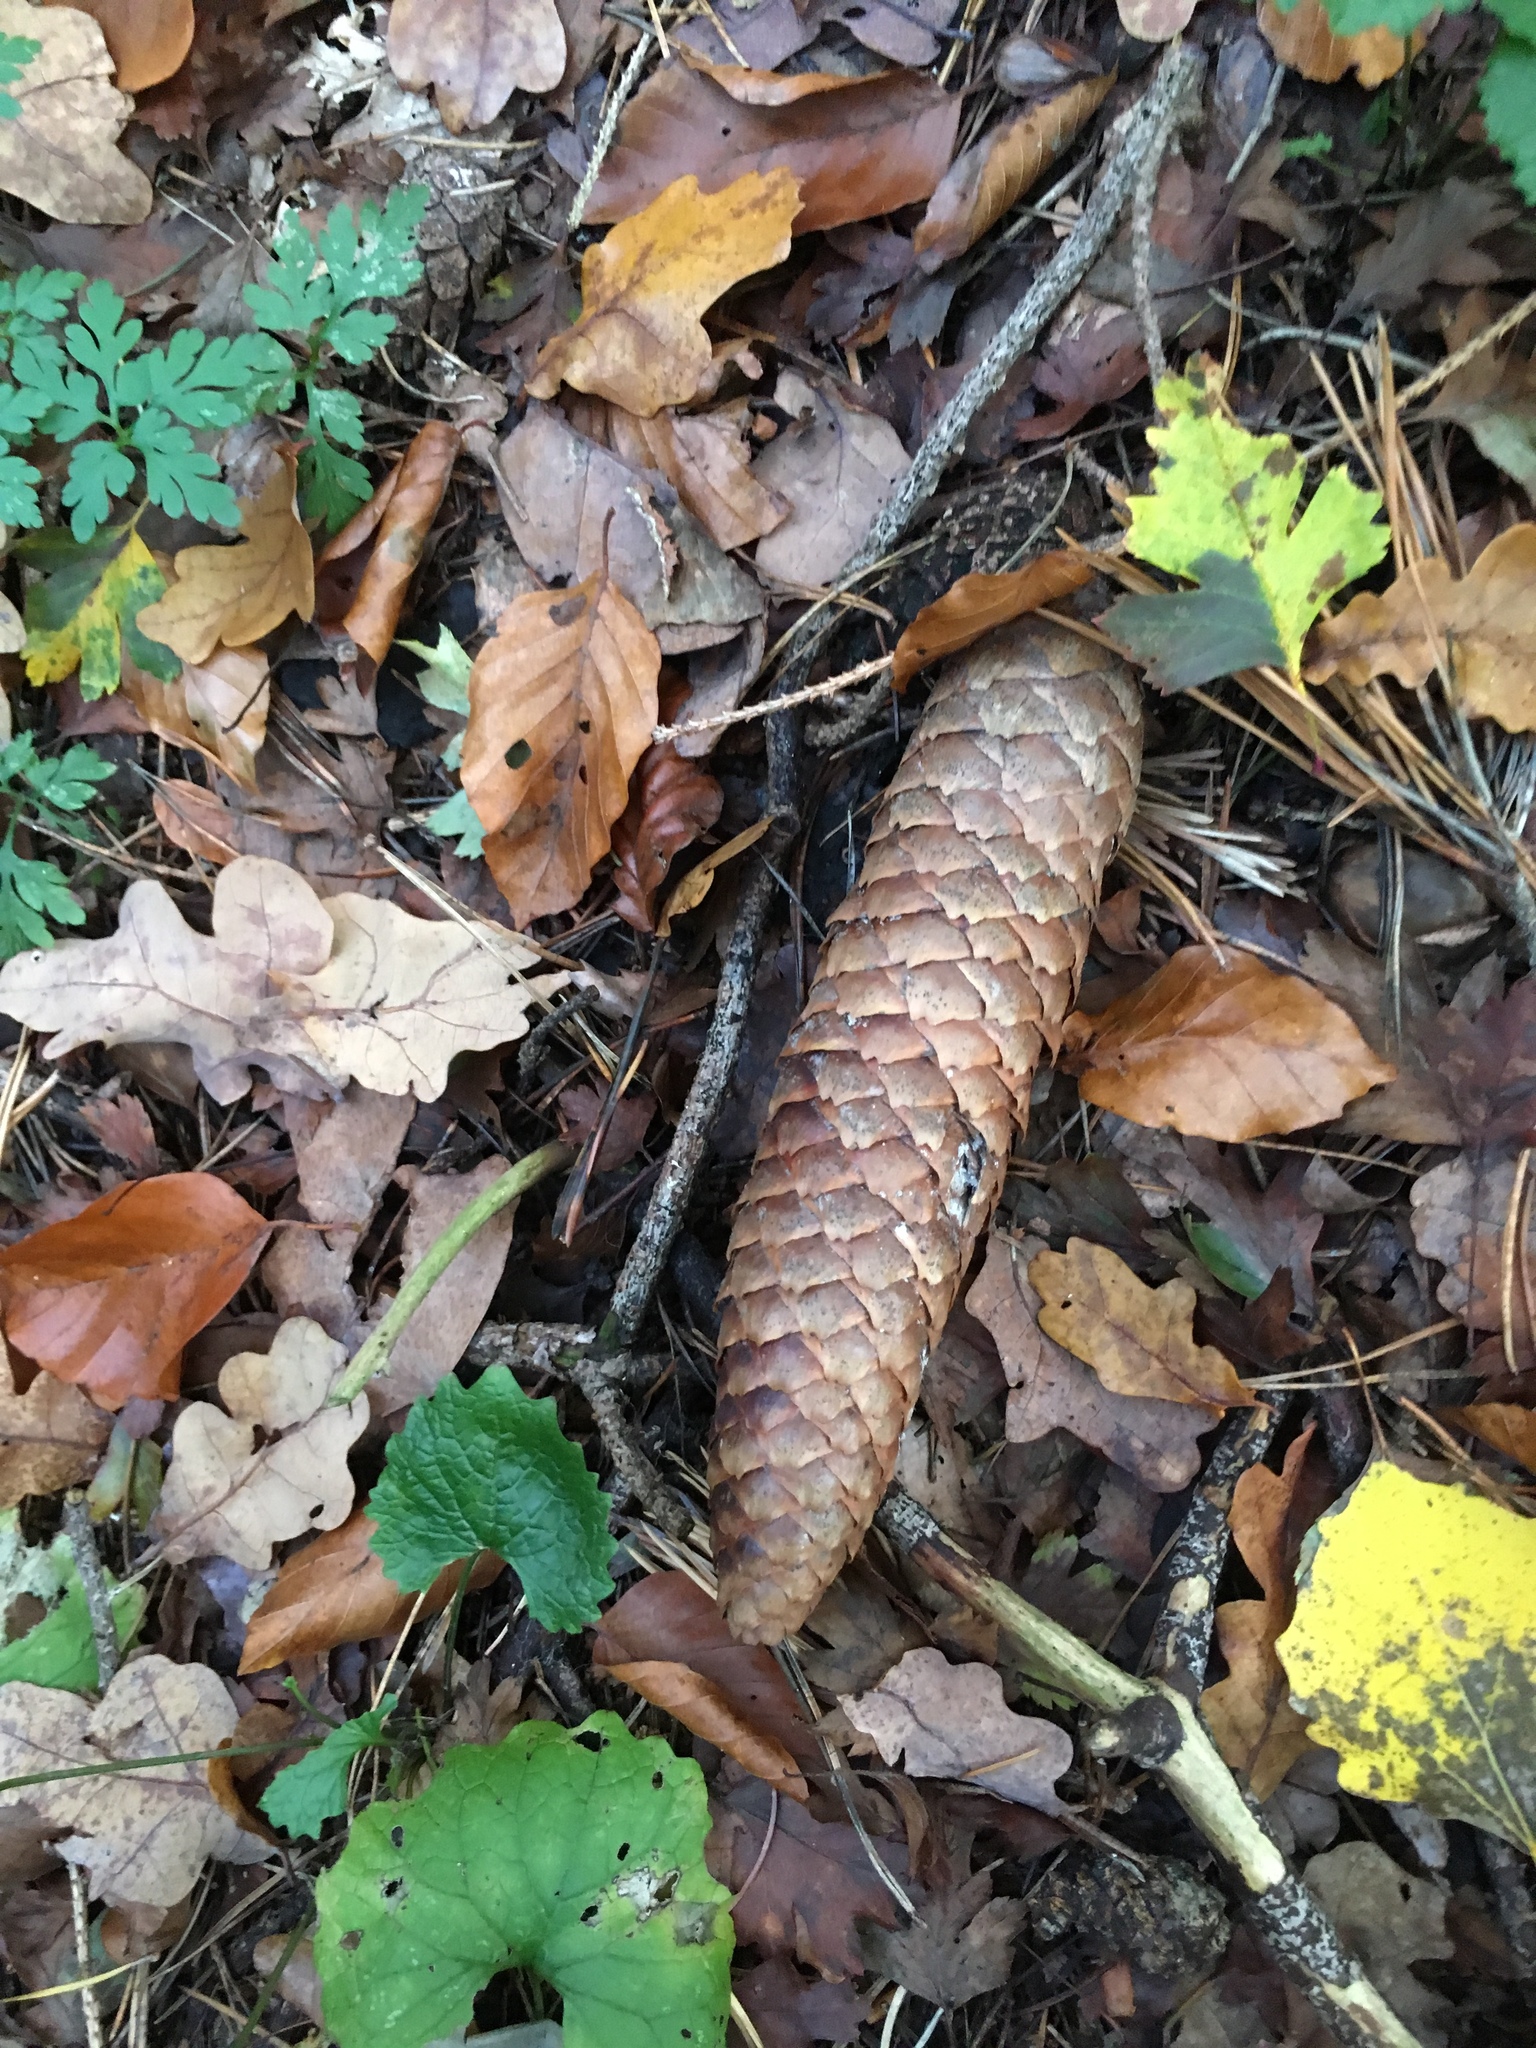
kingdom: Plantae
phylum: Tracheophyta
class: Pinopsida
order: Pinales
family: Pinaceae
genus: Pinus
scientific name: Pinus sylvestris
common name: Scots pine
